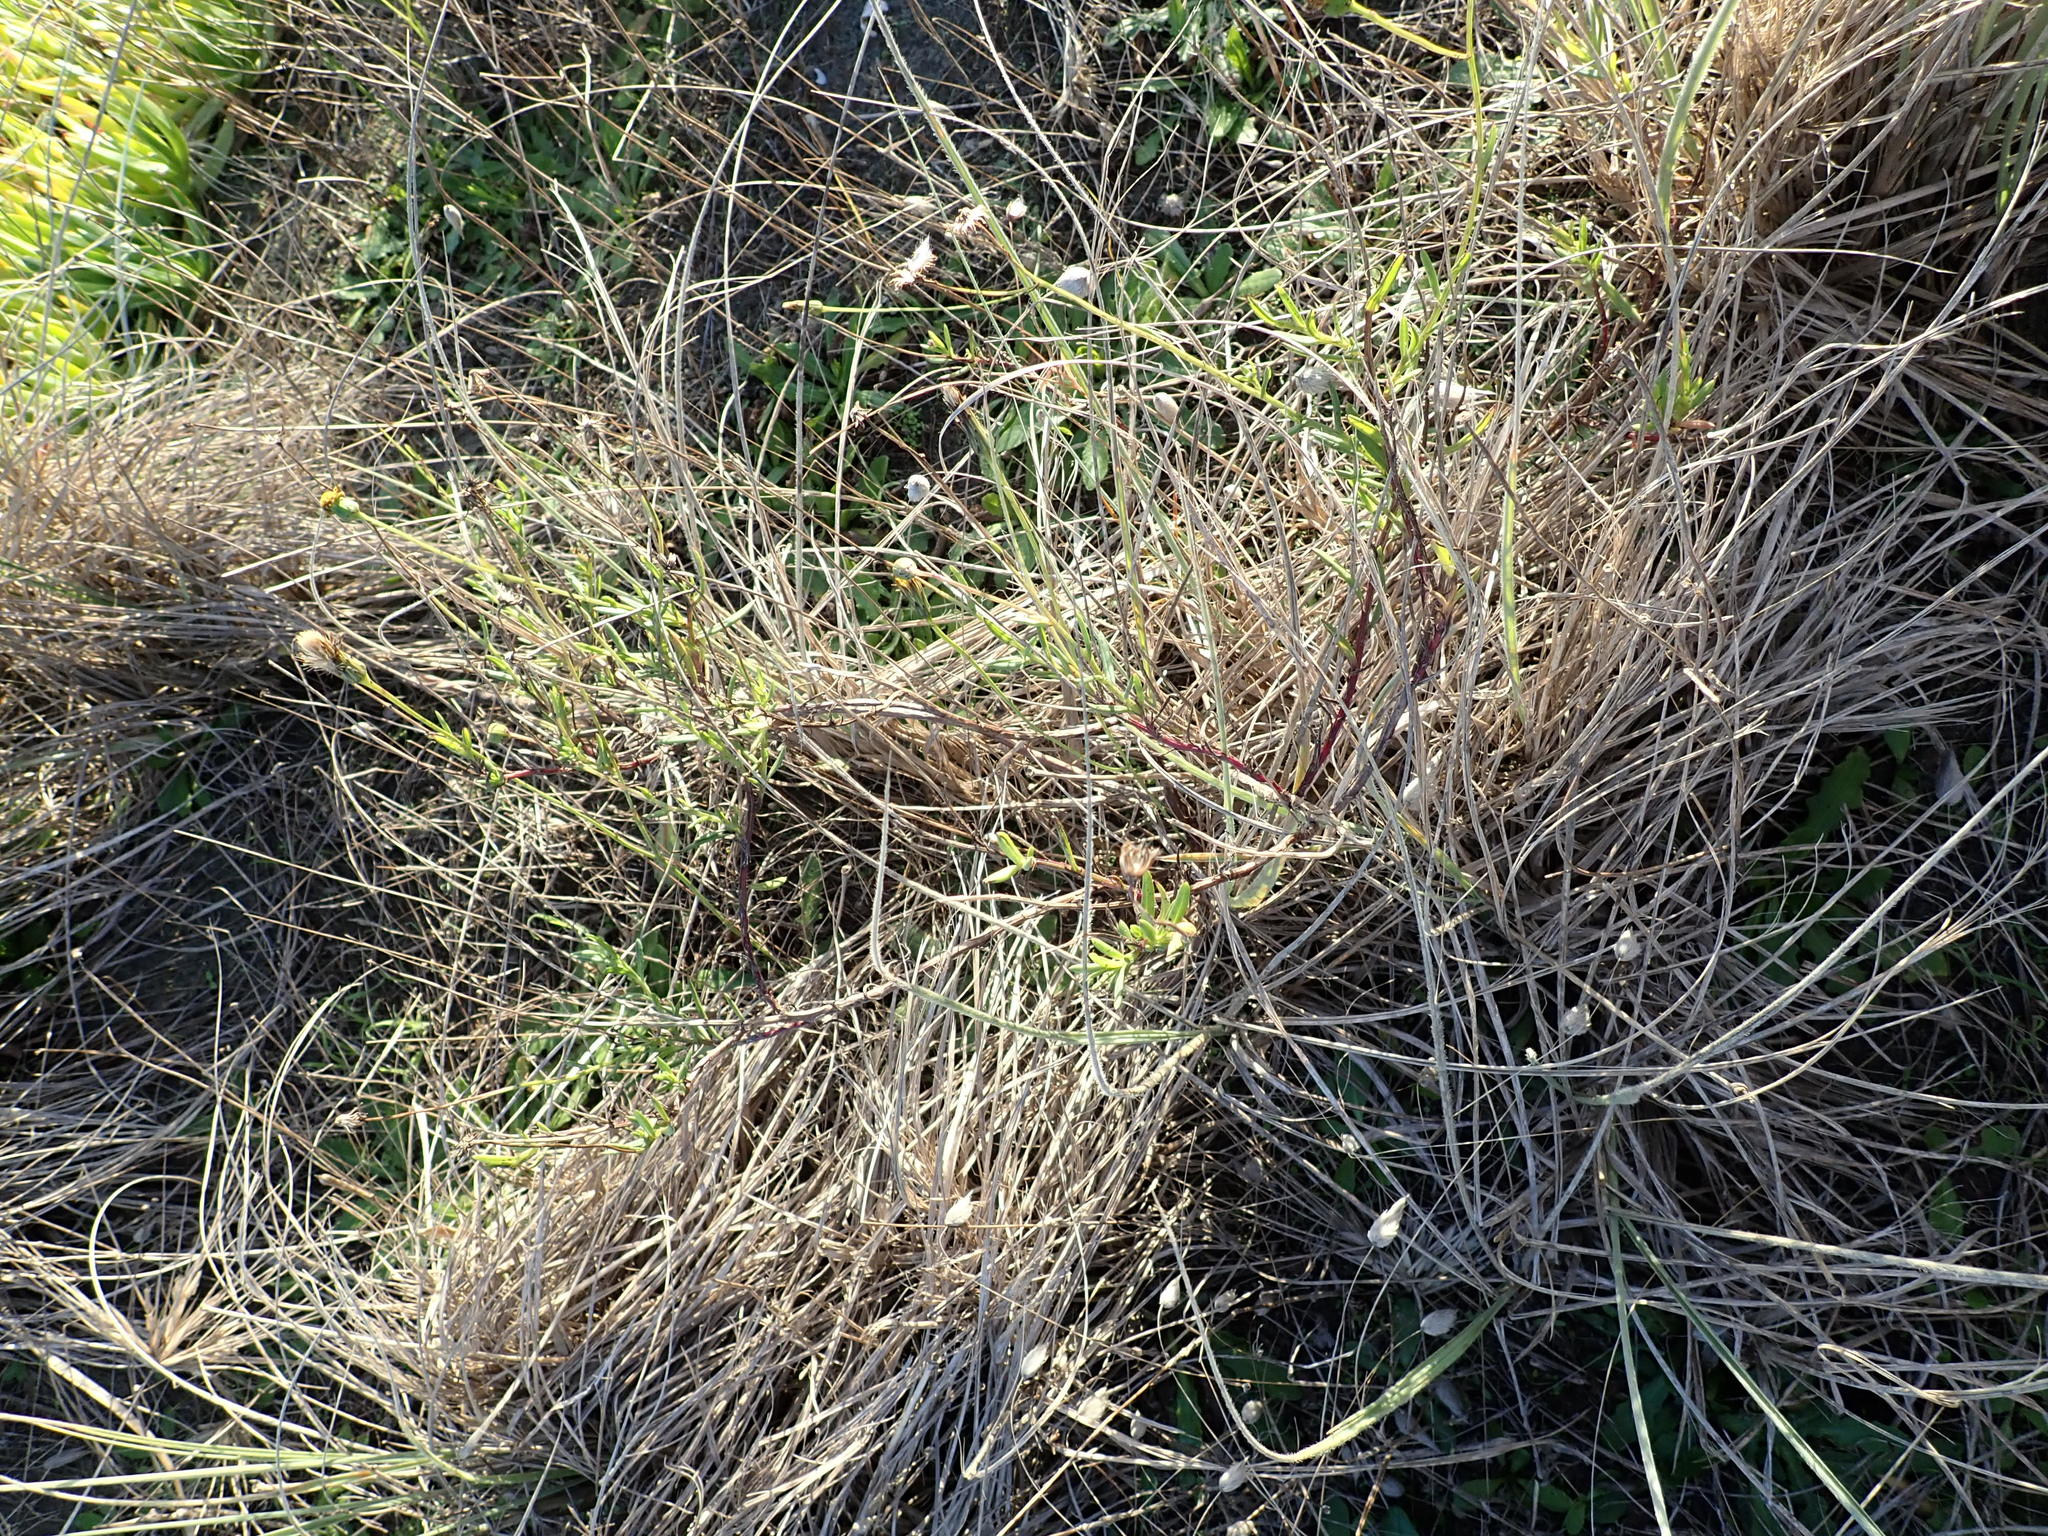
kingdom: Plantae
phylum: Tracheophyta
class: Magnoliopsida
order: Asterales
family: Asteraceae
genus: Senecio
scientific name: Senecio skirrhodon
